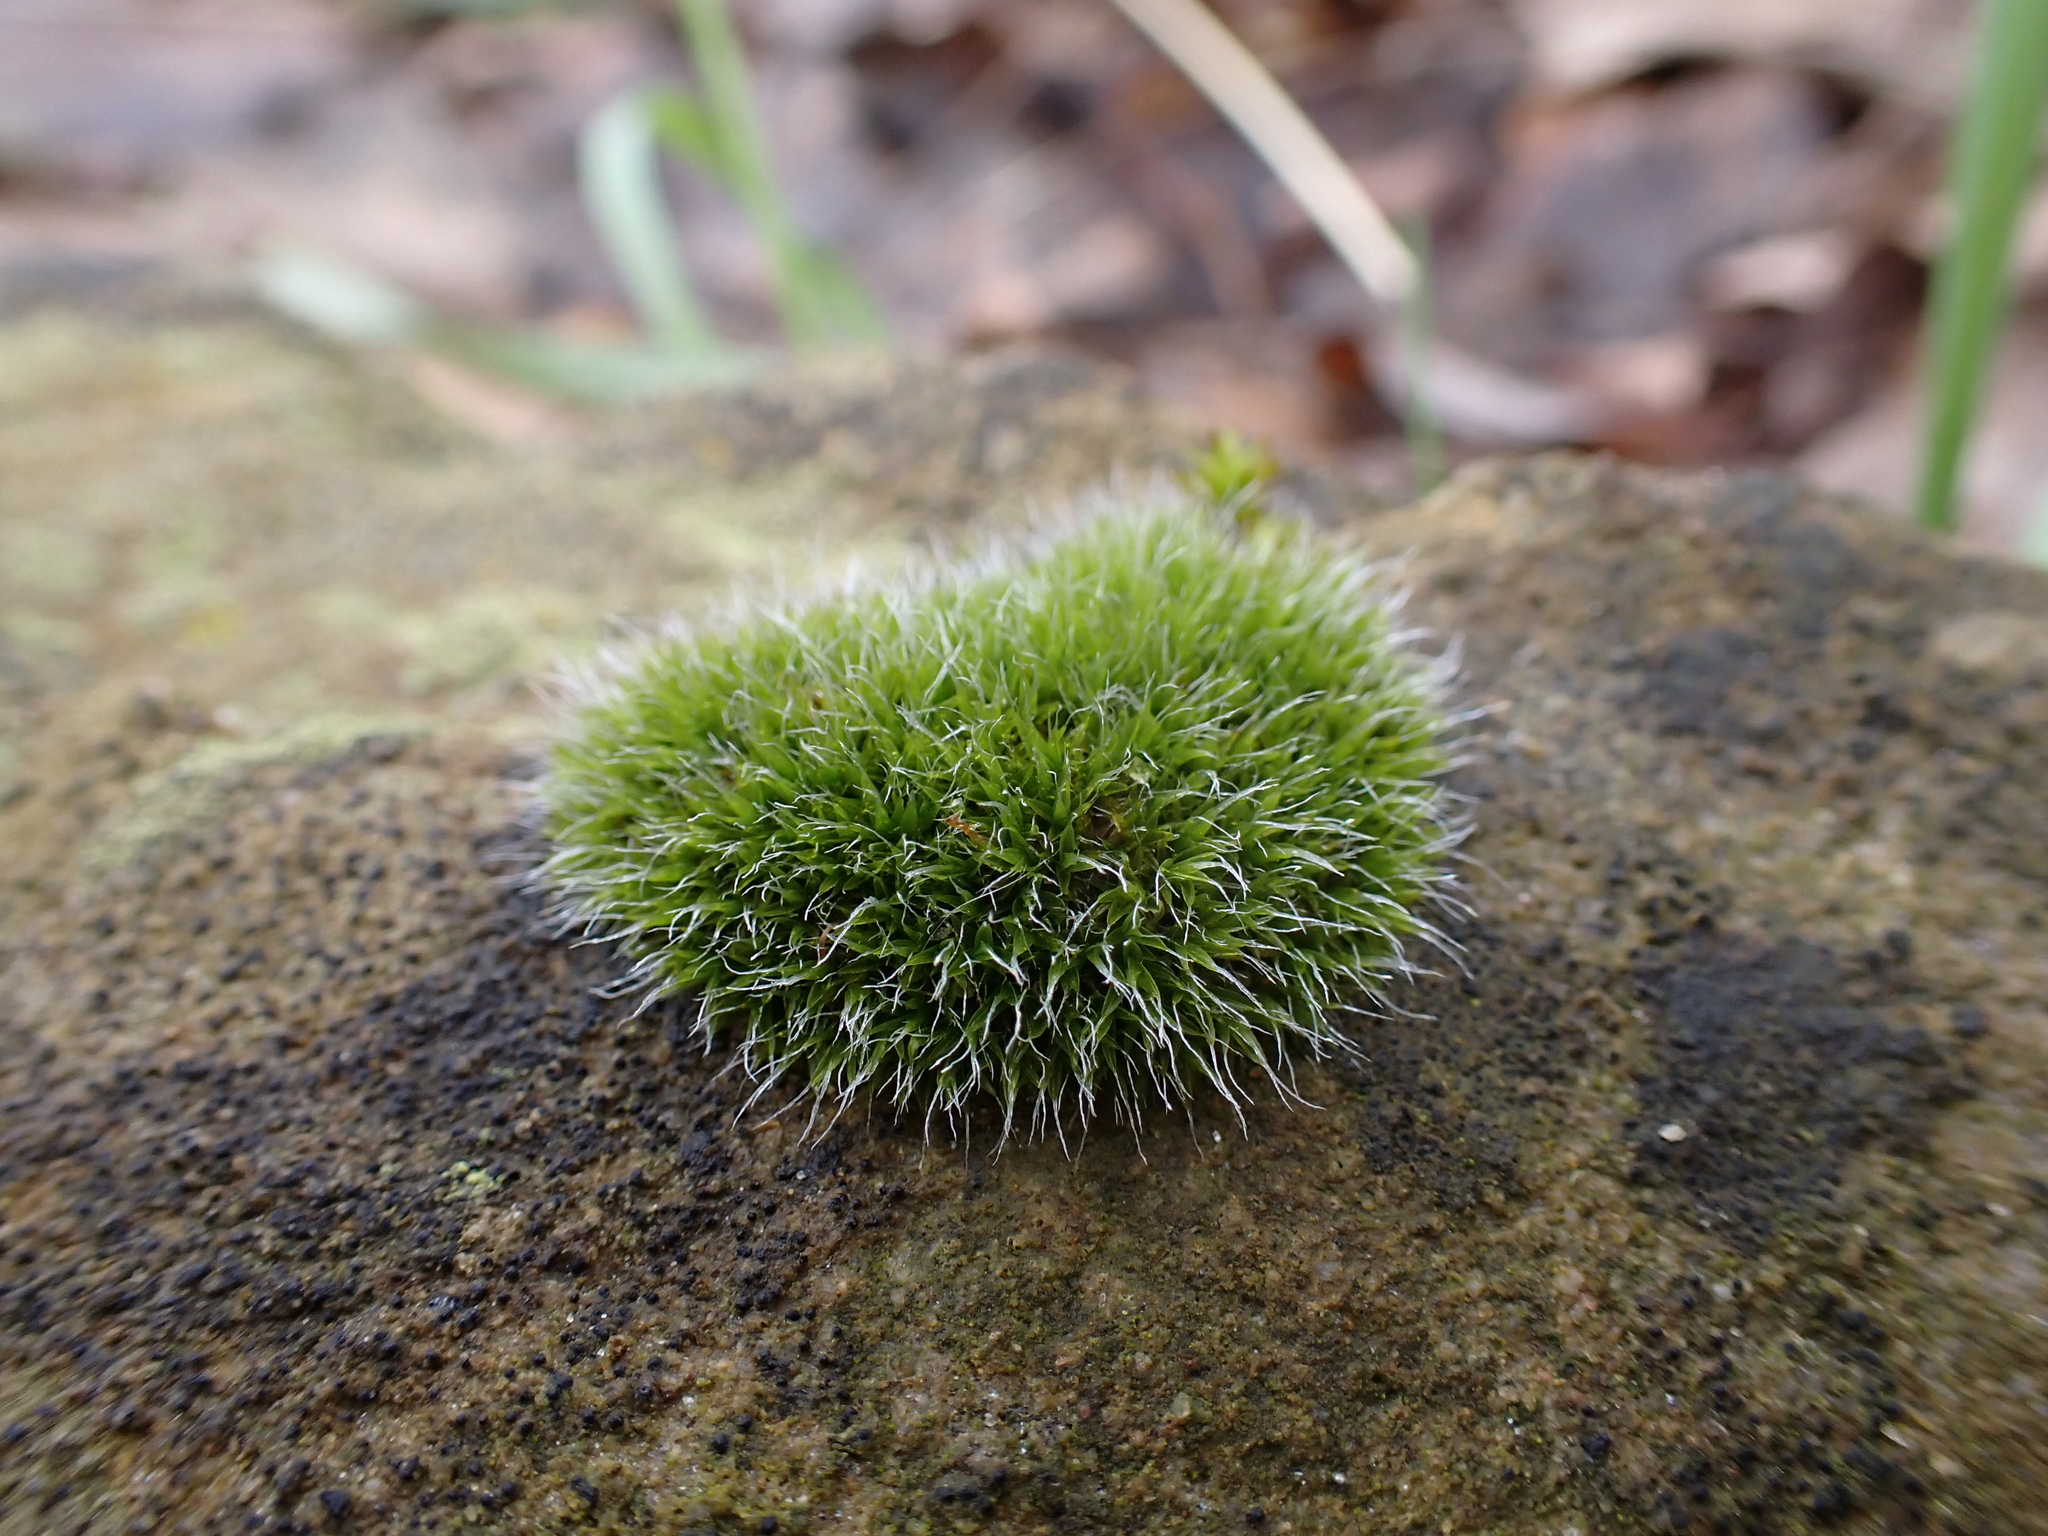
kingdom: Plantae
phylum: Bryophyta
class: Bryopsida
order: Grimmiales
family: Grimmiaceae
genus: Grimmia
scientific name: Grimmia pulvinata
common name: Grey-cushioned grimmia
